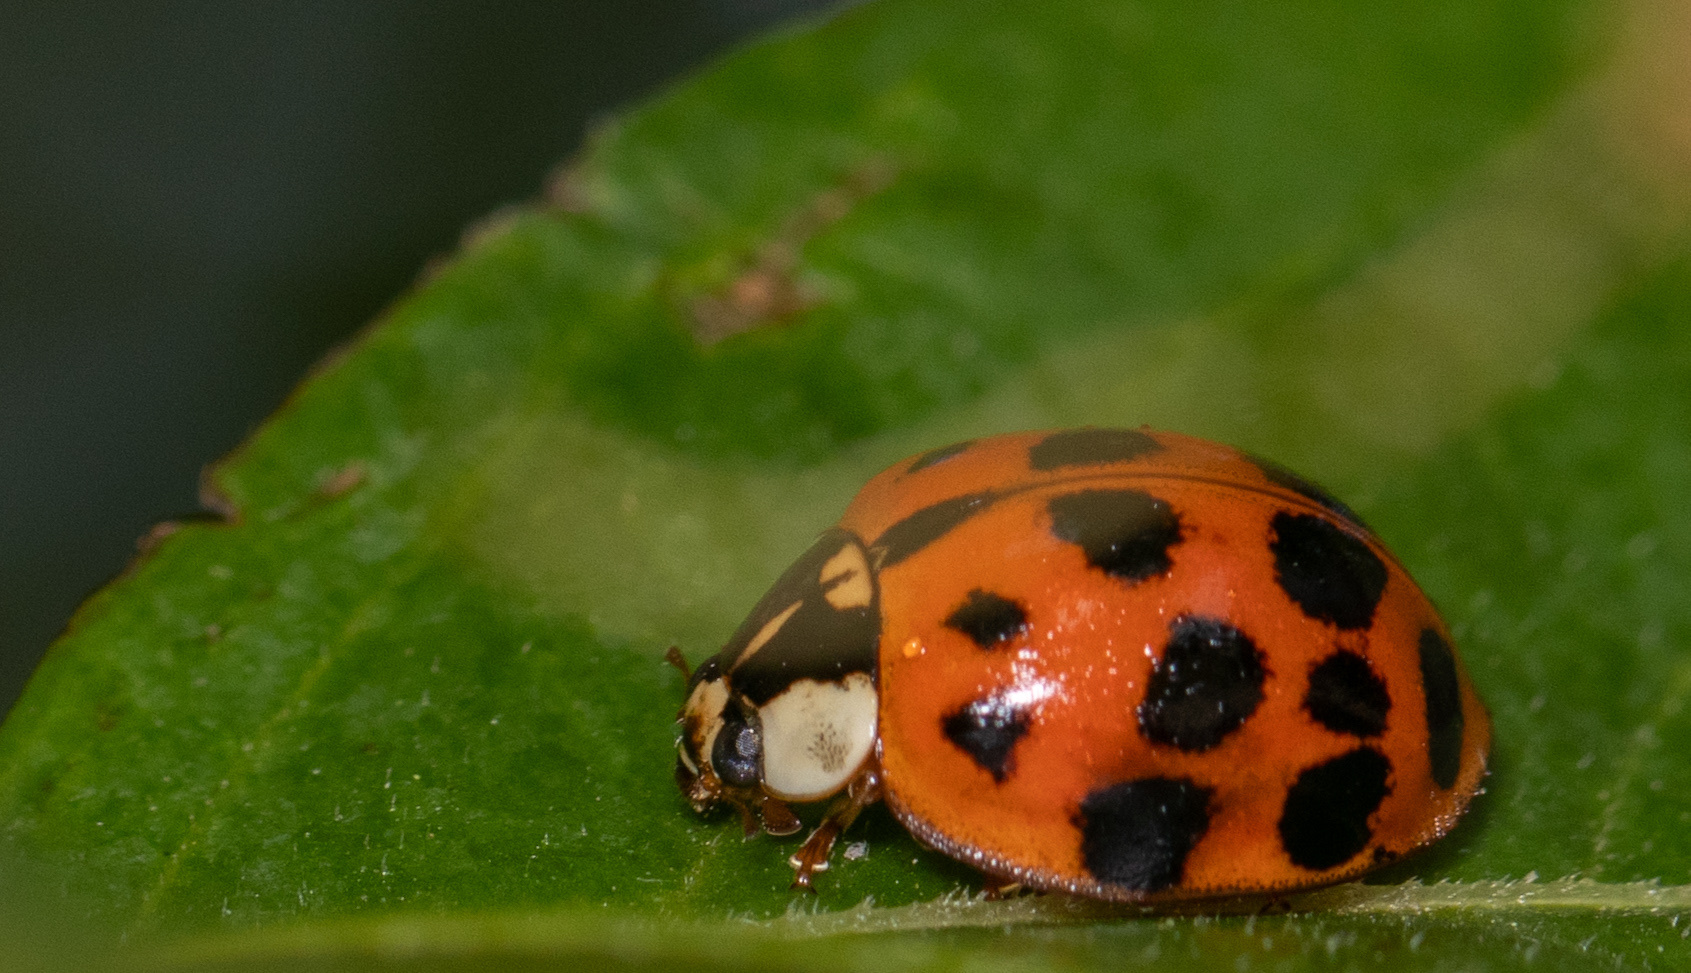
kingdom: Animalia
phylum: Arthropoda
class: Insecta
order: Coleoptera
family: Coccinellidae
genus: Harmonia
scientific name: Harmonia axyridis
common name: Harlequin ladybird
